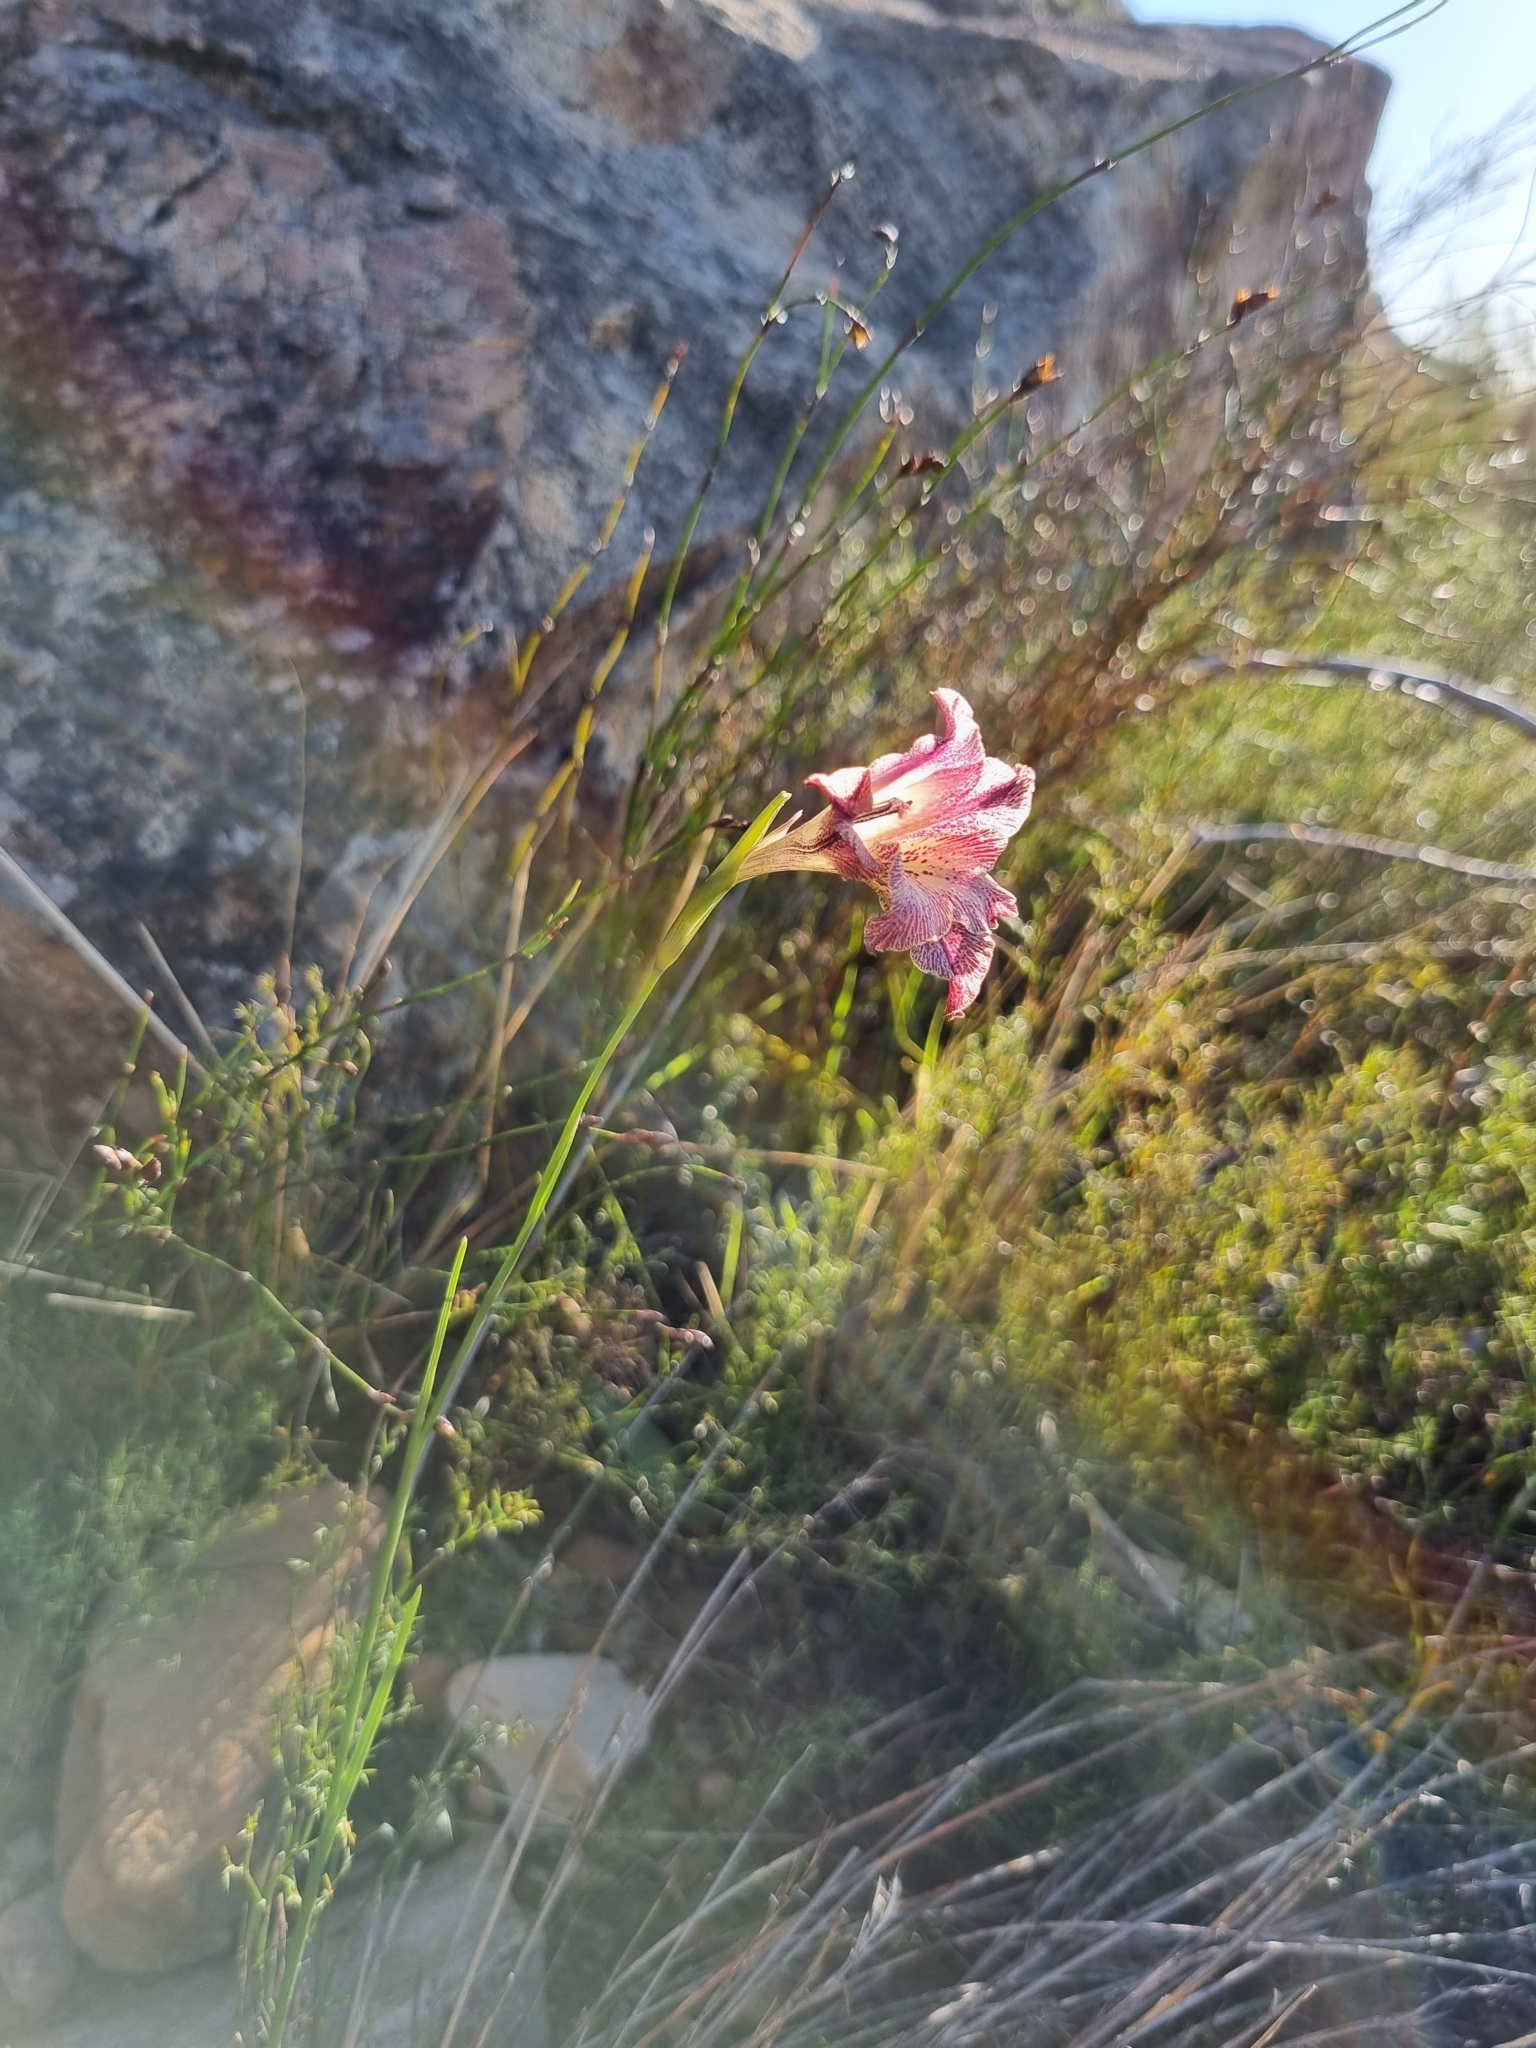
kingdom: Plantae
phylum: Tracheophyta
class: Liliopsida
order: Asparagales
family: Iridaceae
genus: Gladiolus
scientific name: Gladiolus maculatus
